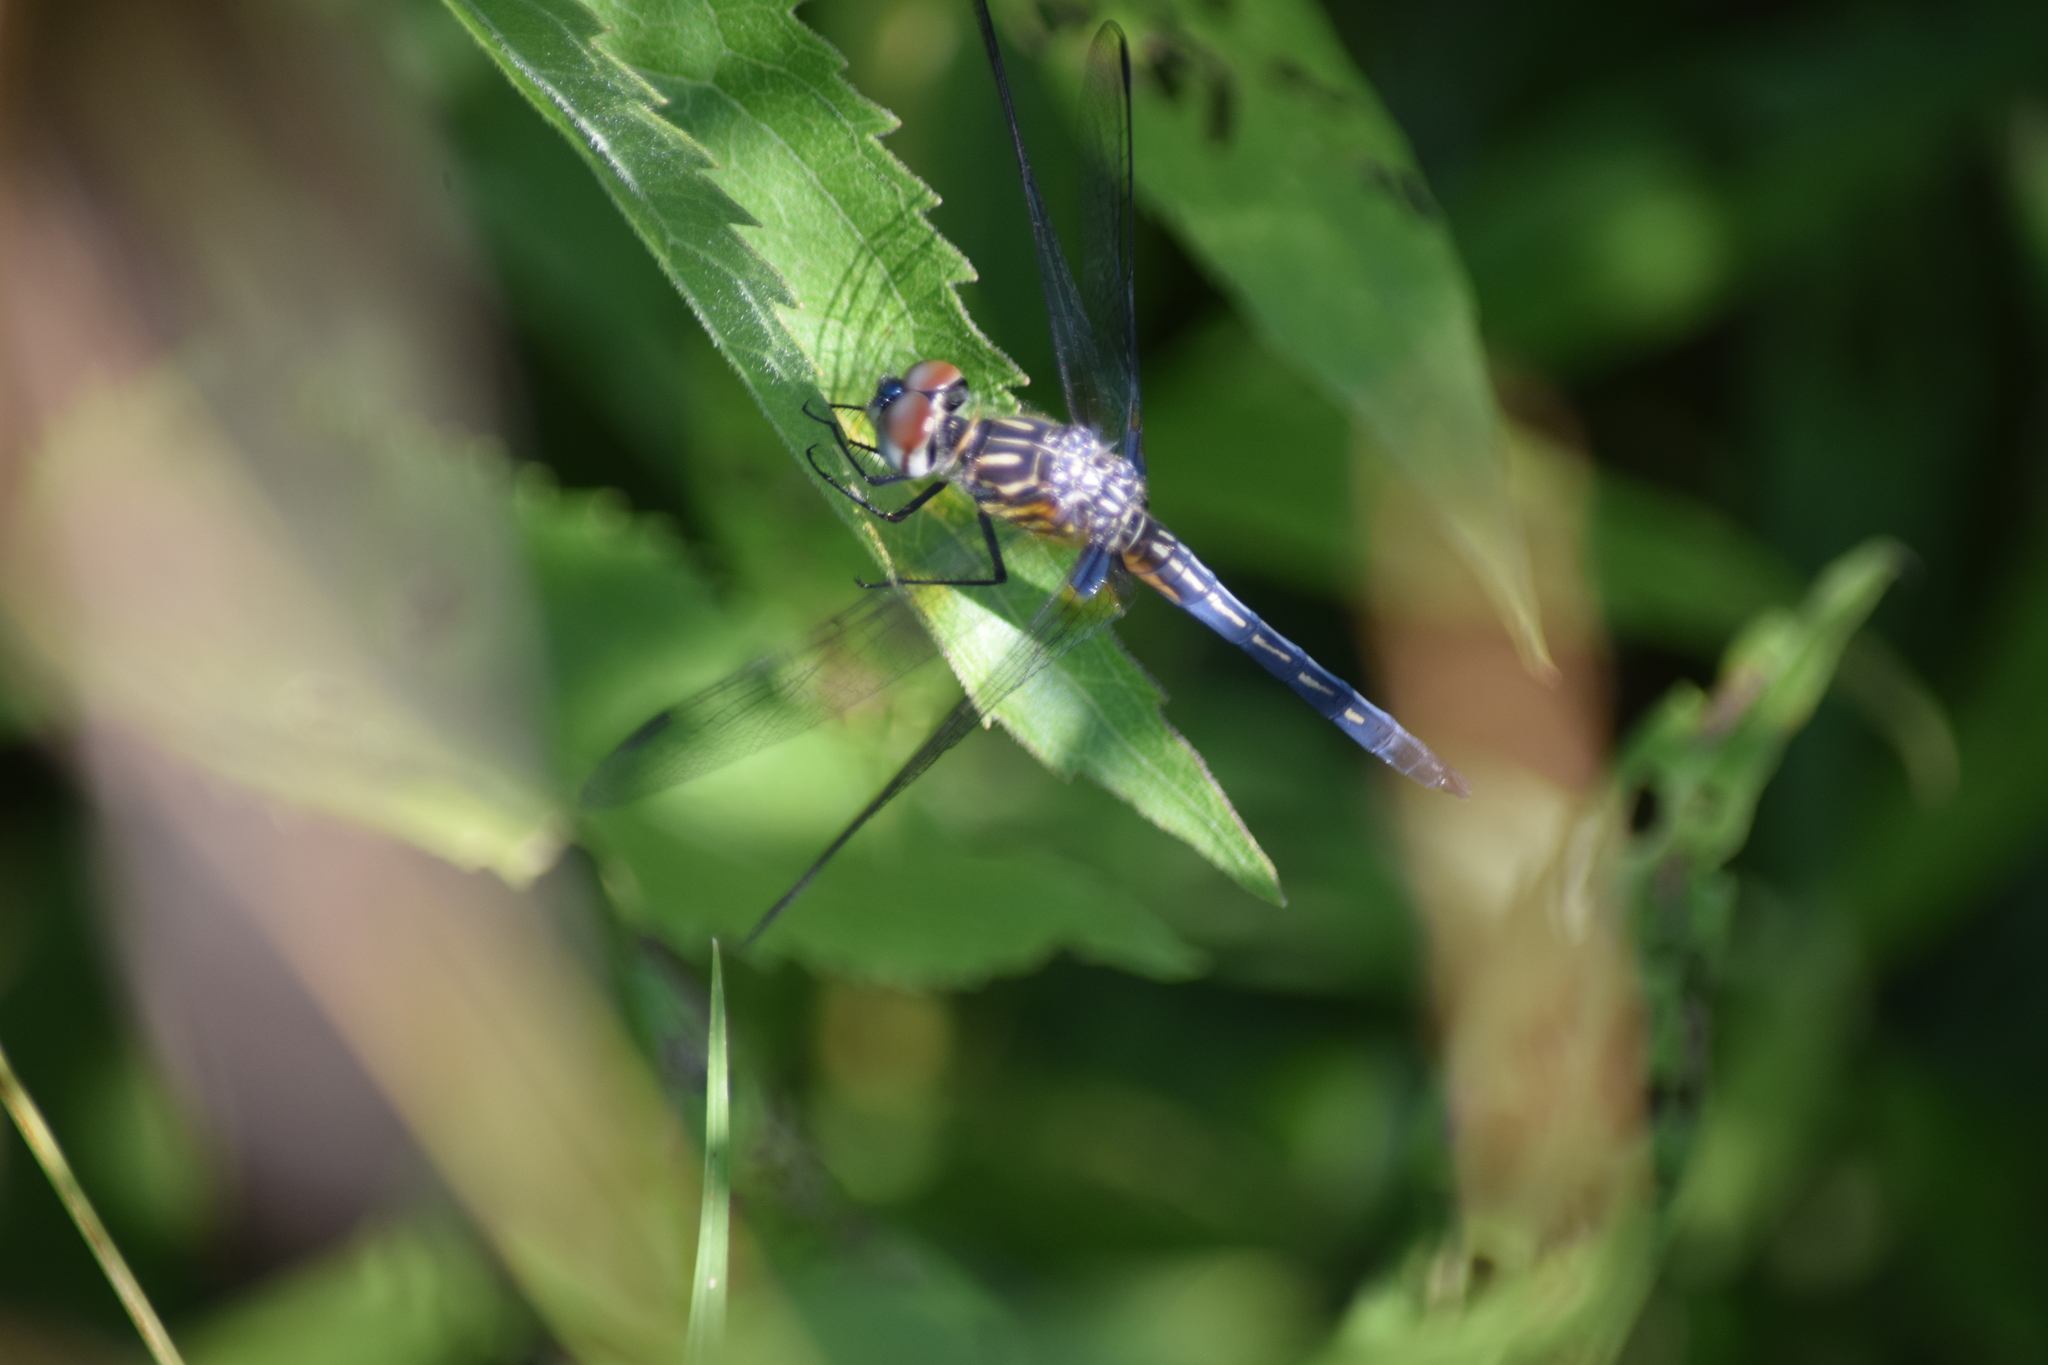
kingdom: Animalia
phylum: Arthropoda
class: Insecta
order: Odonata
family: Libellulidae
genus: Pachydiplax
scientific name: Pachydiplax longipennis
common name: Blue dasher
